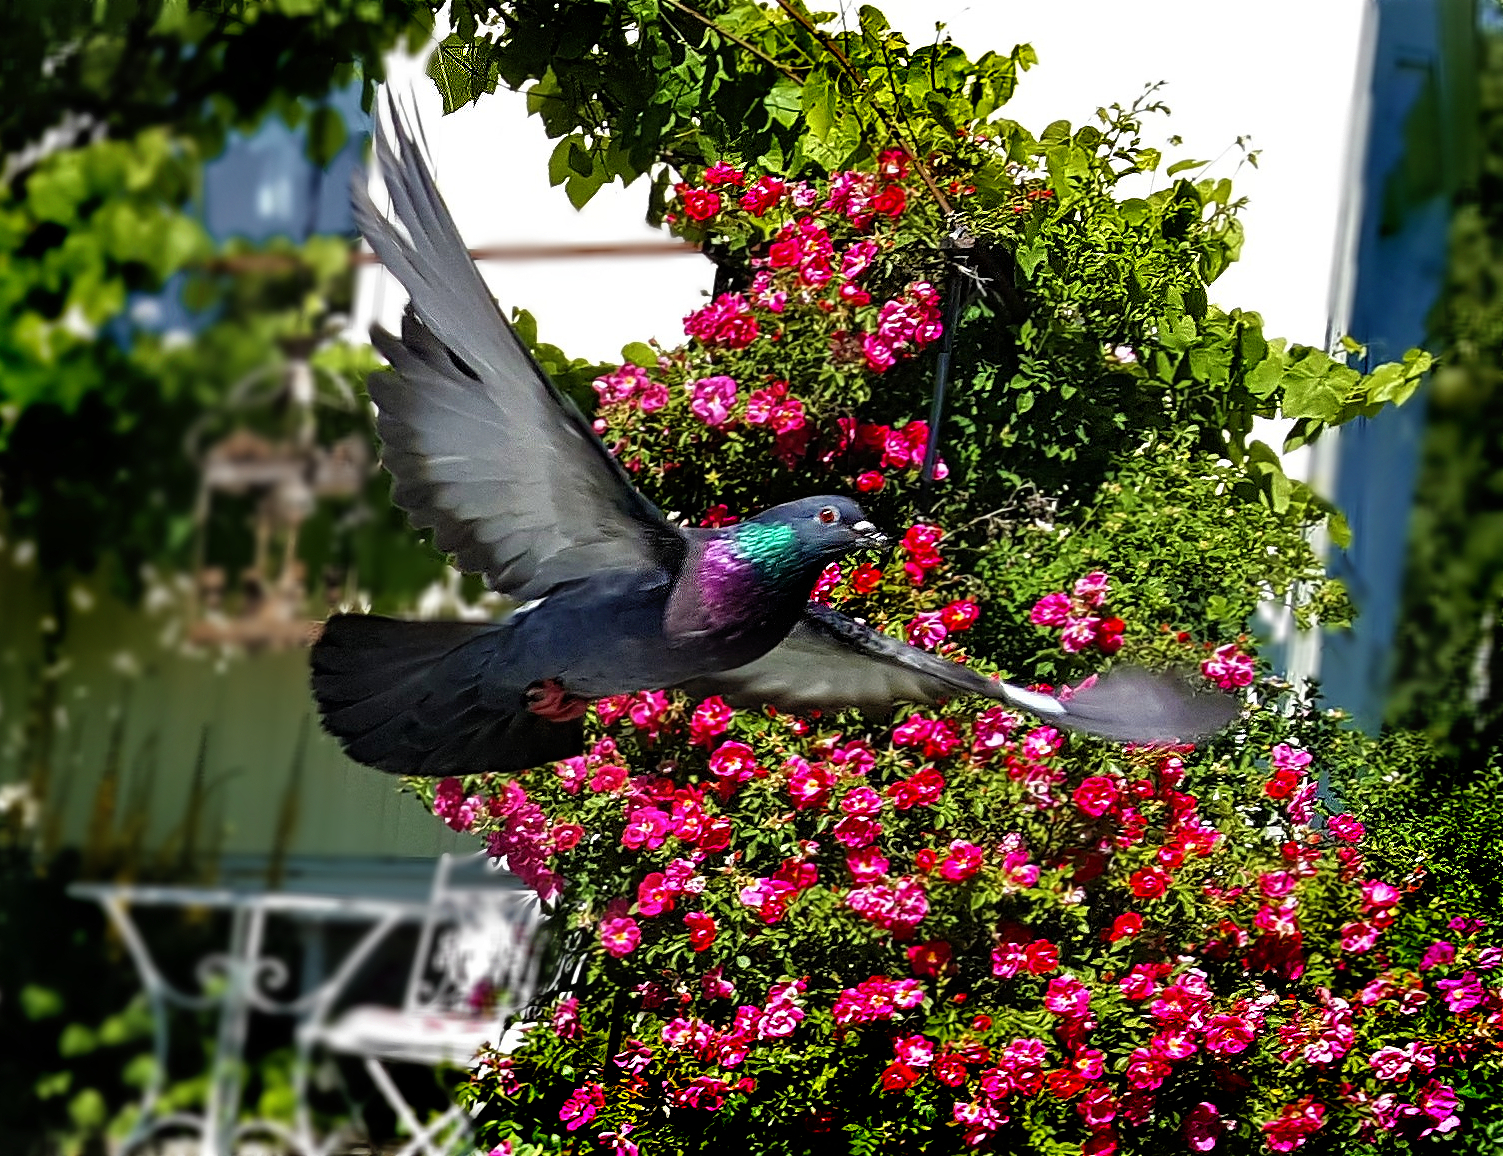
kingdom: Animalia
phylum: Chordata
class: Aves
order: Columbiformes
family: Columbidae
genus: Columba
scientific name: Columba livia
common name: Rock pigeon
